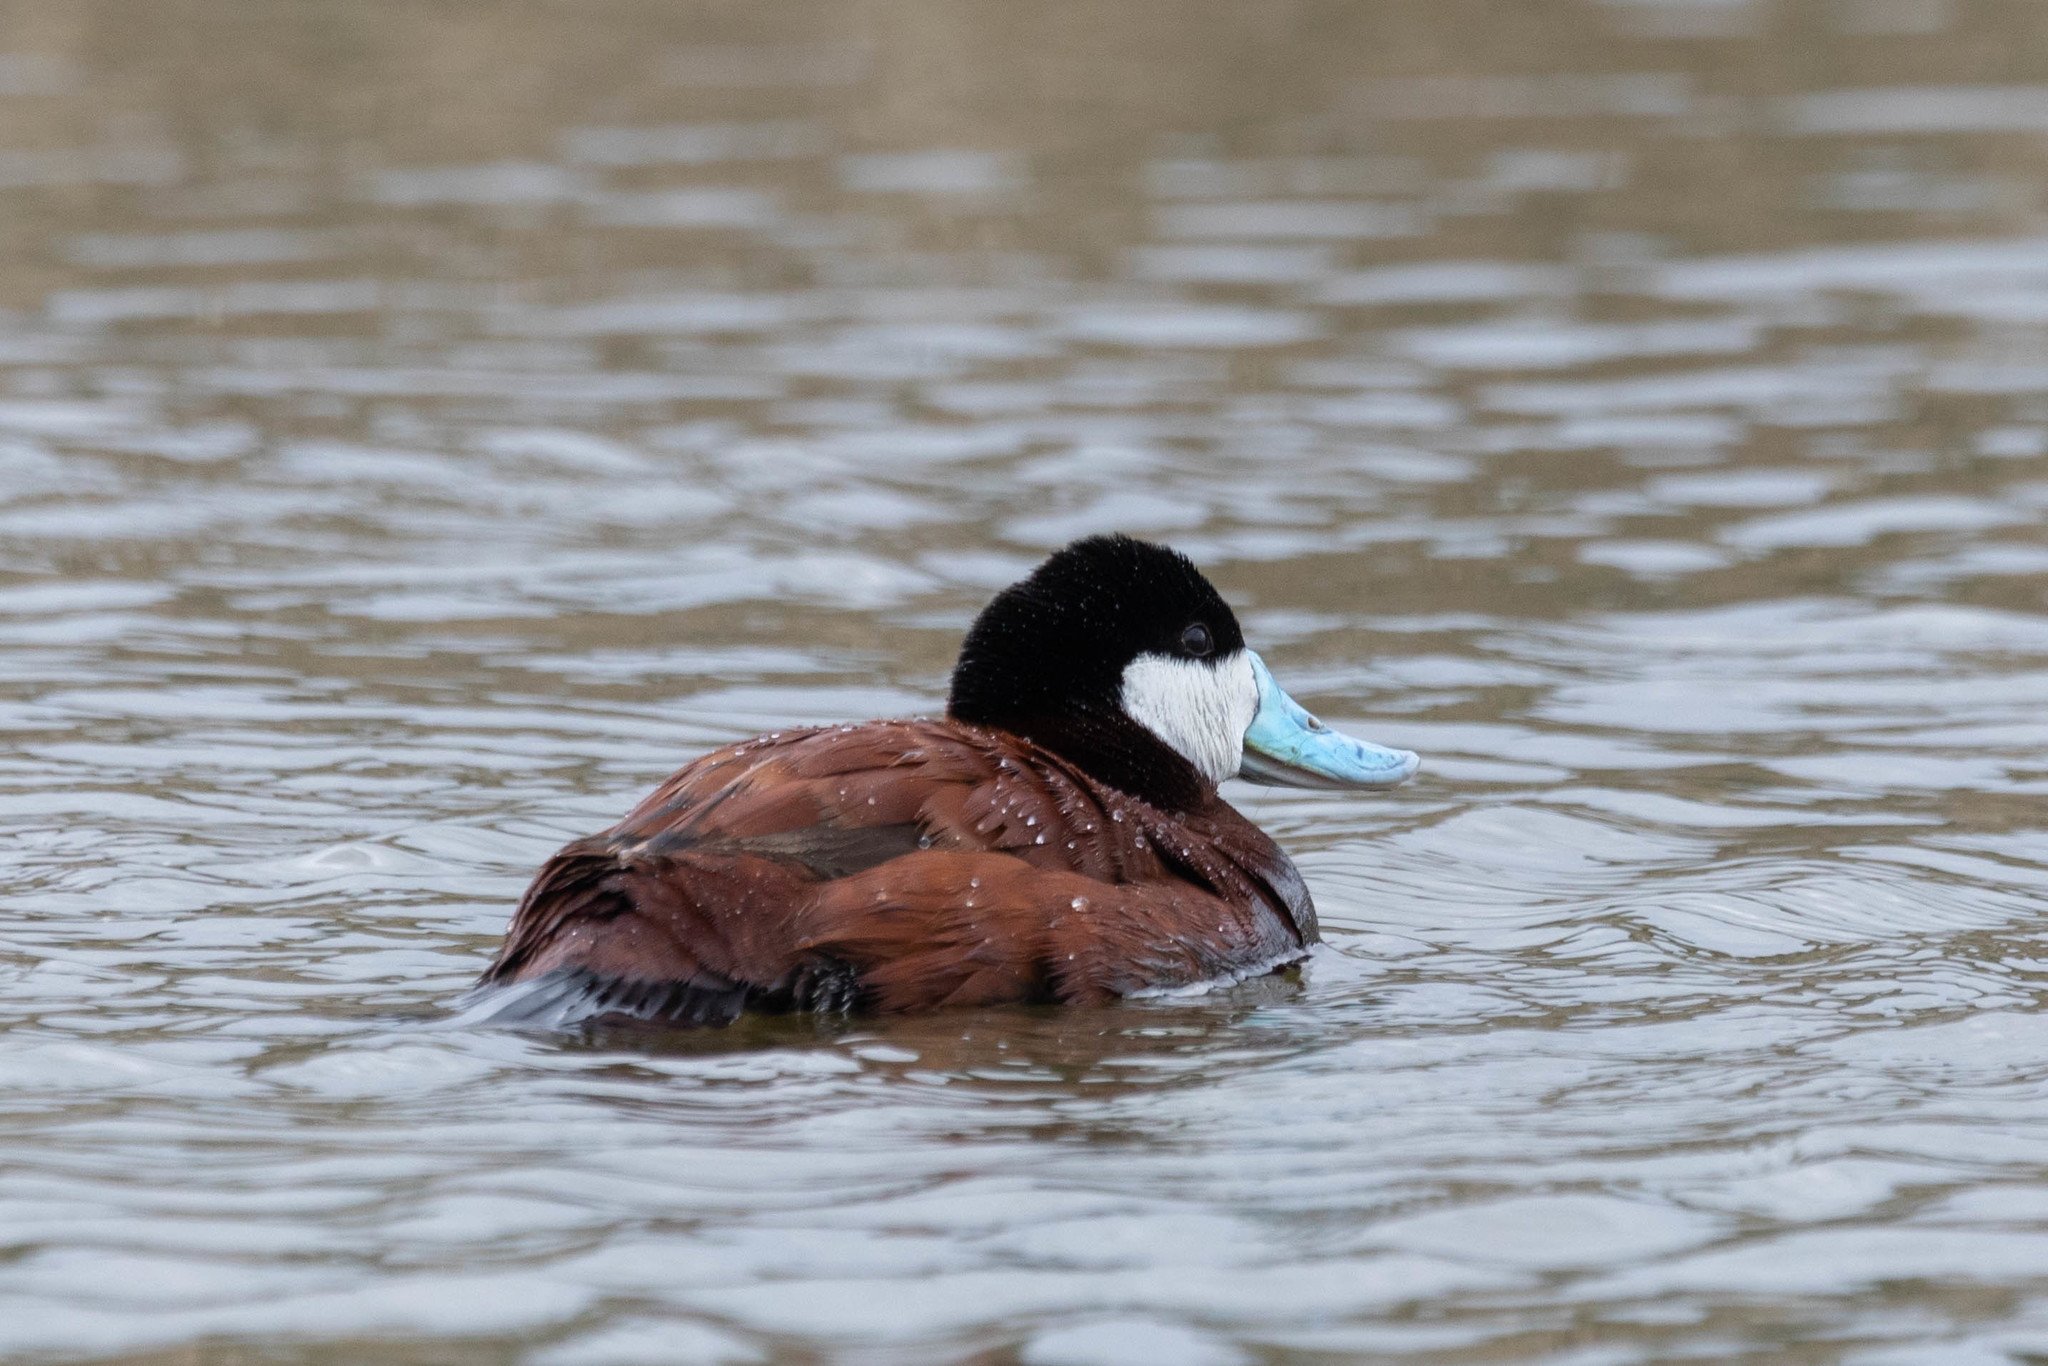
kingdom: Animalia
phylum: Chordata
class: Aves
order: Anseriformes
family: Anatidae
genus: Oxyura
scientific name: Oxyura jamaicensis
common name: Ruddy duck
